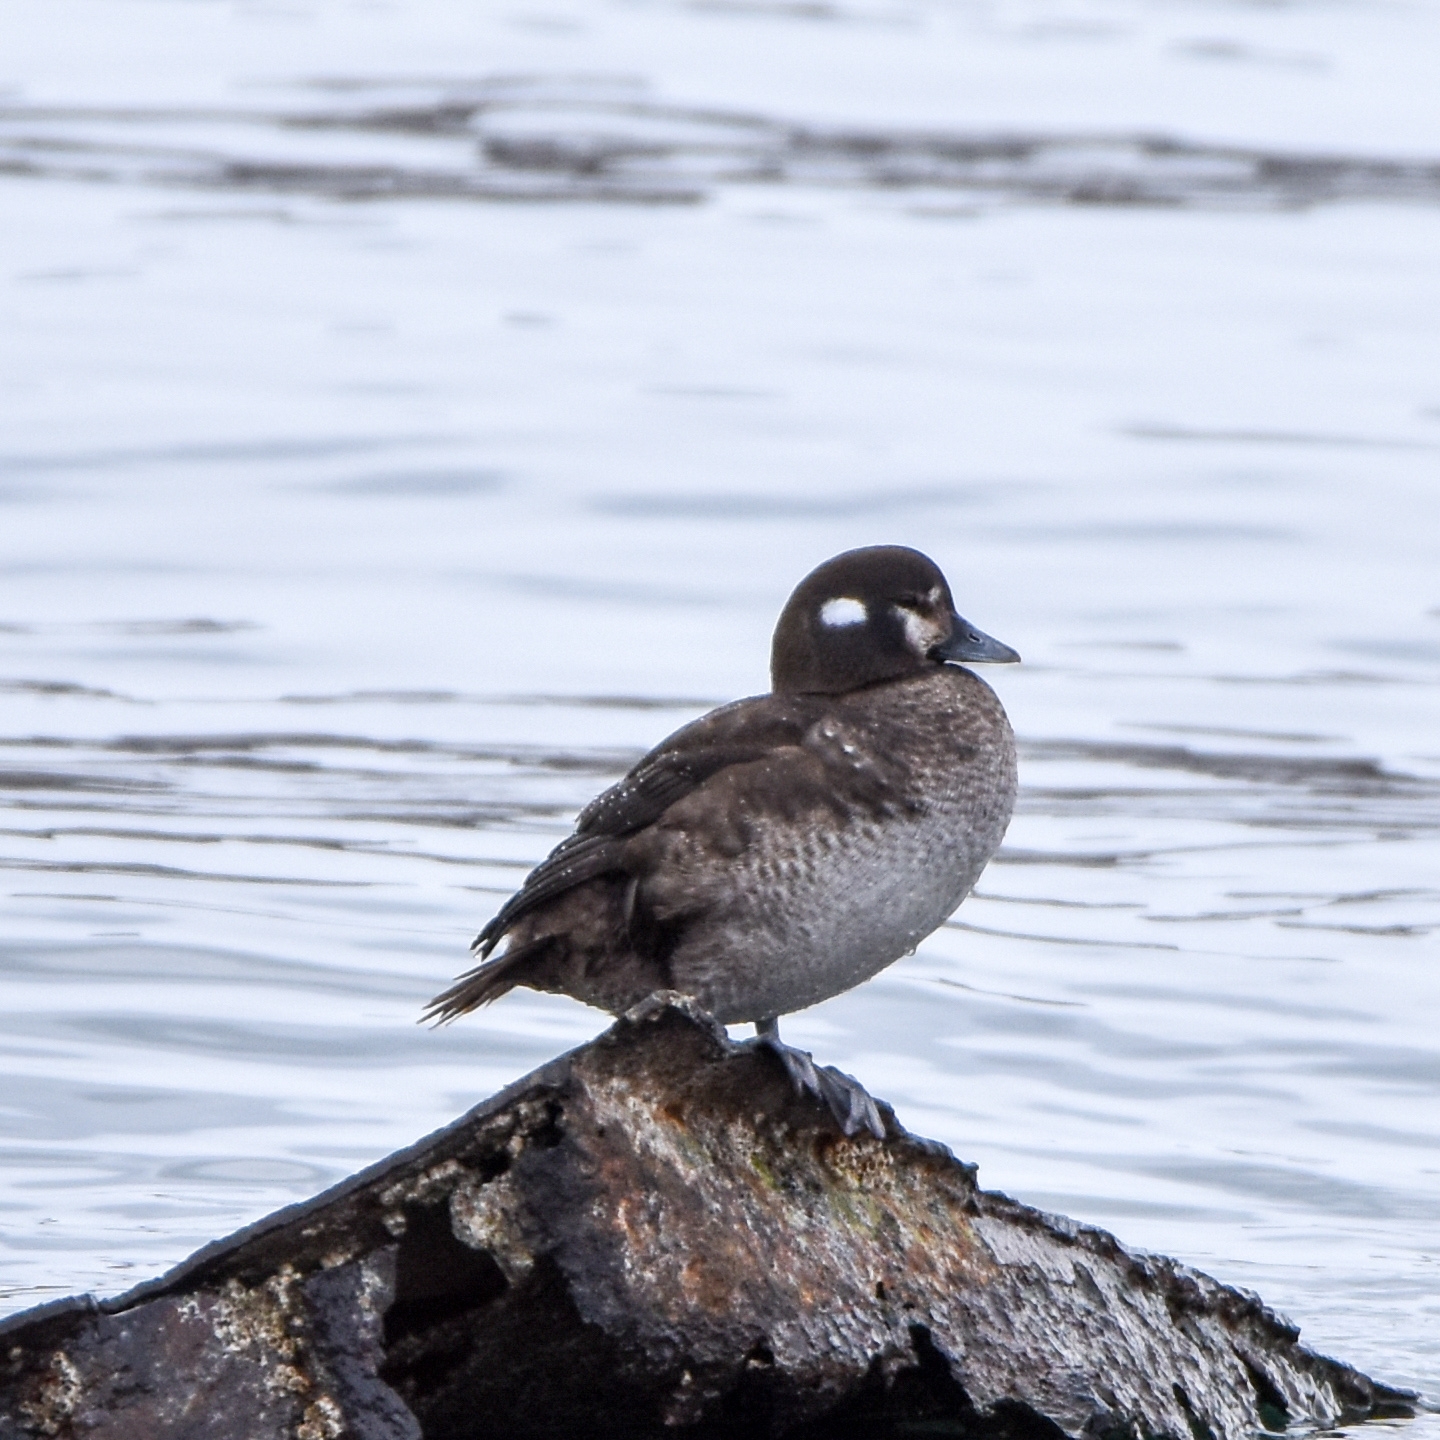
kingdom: Animalia
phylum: Chordata
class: Aves
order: Anseriformes
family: Anatidae
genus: Histrionicus
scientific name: Histrionicus histrionicus
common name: Harlequin duck
